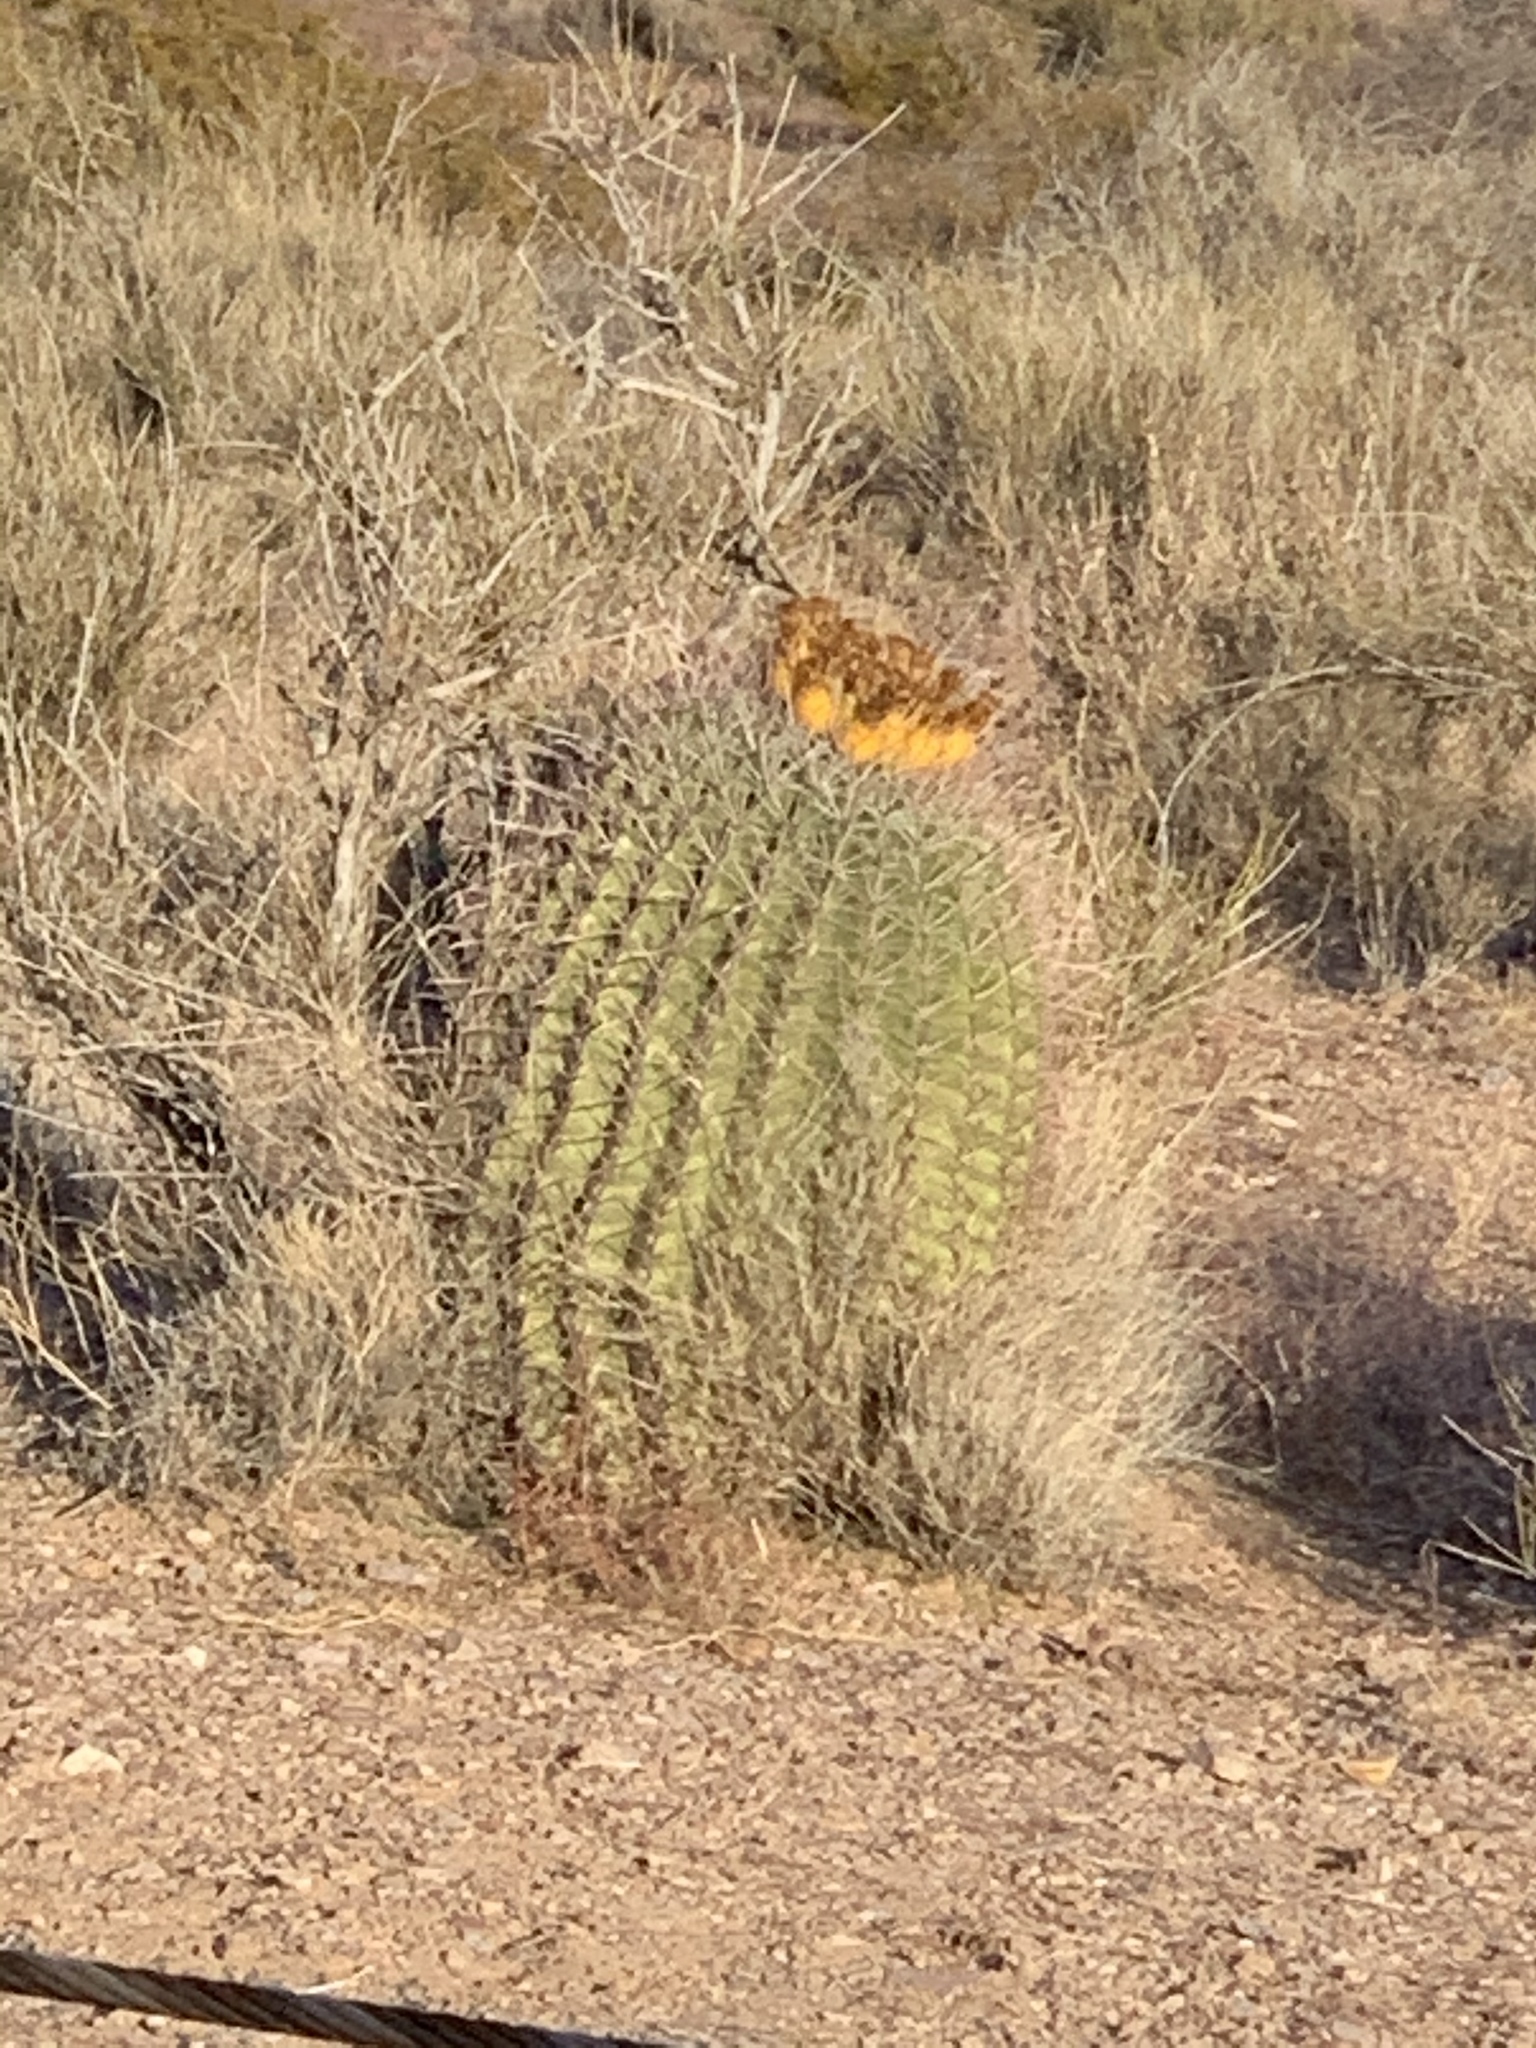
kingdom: Plantae
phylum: Tracheophyta
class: Magnoliopsida
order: Caryophyllales
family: Cactaceae
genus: Ferocactus
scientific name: Ferocactus wislizeni
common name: Candy barrel cactus
